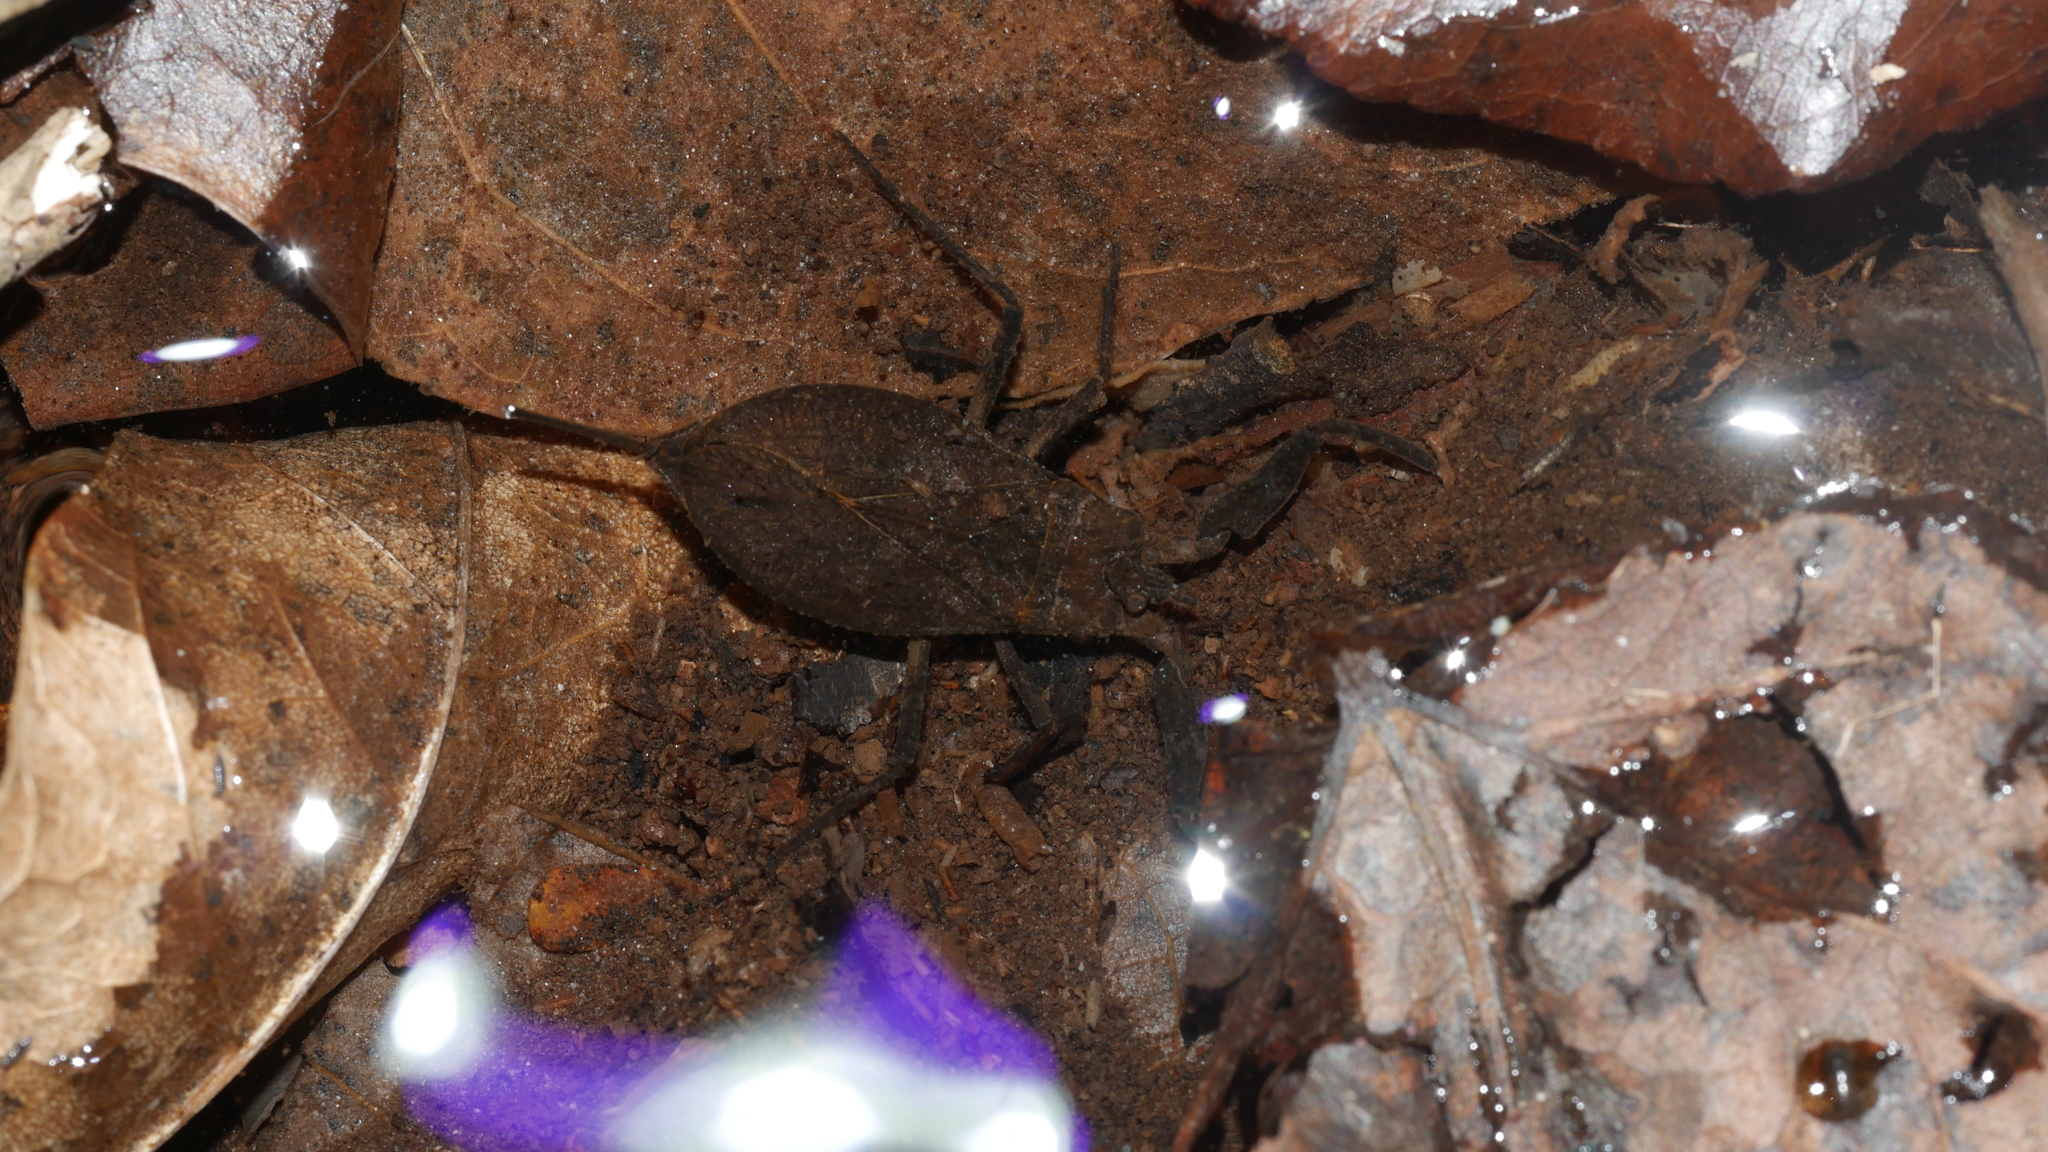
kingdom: Animalia
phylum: Arthropoda
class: Insecta
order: Hemiptera
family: Nepidae
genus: Nepa
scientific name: Nepa apiculata
